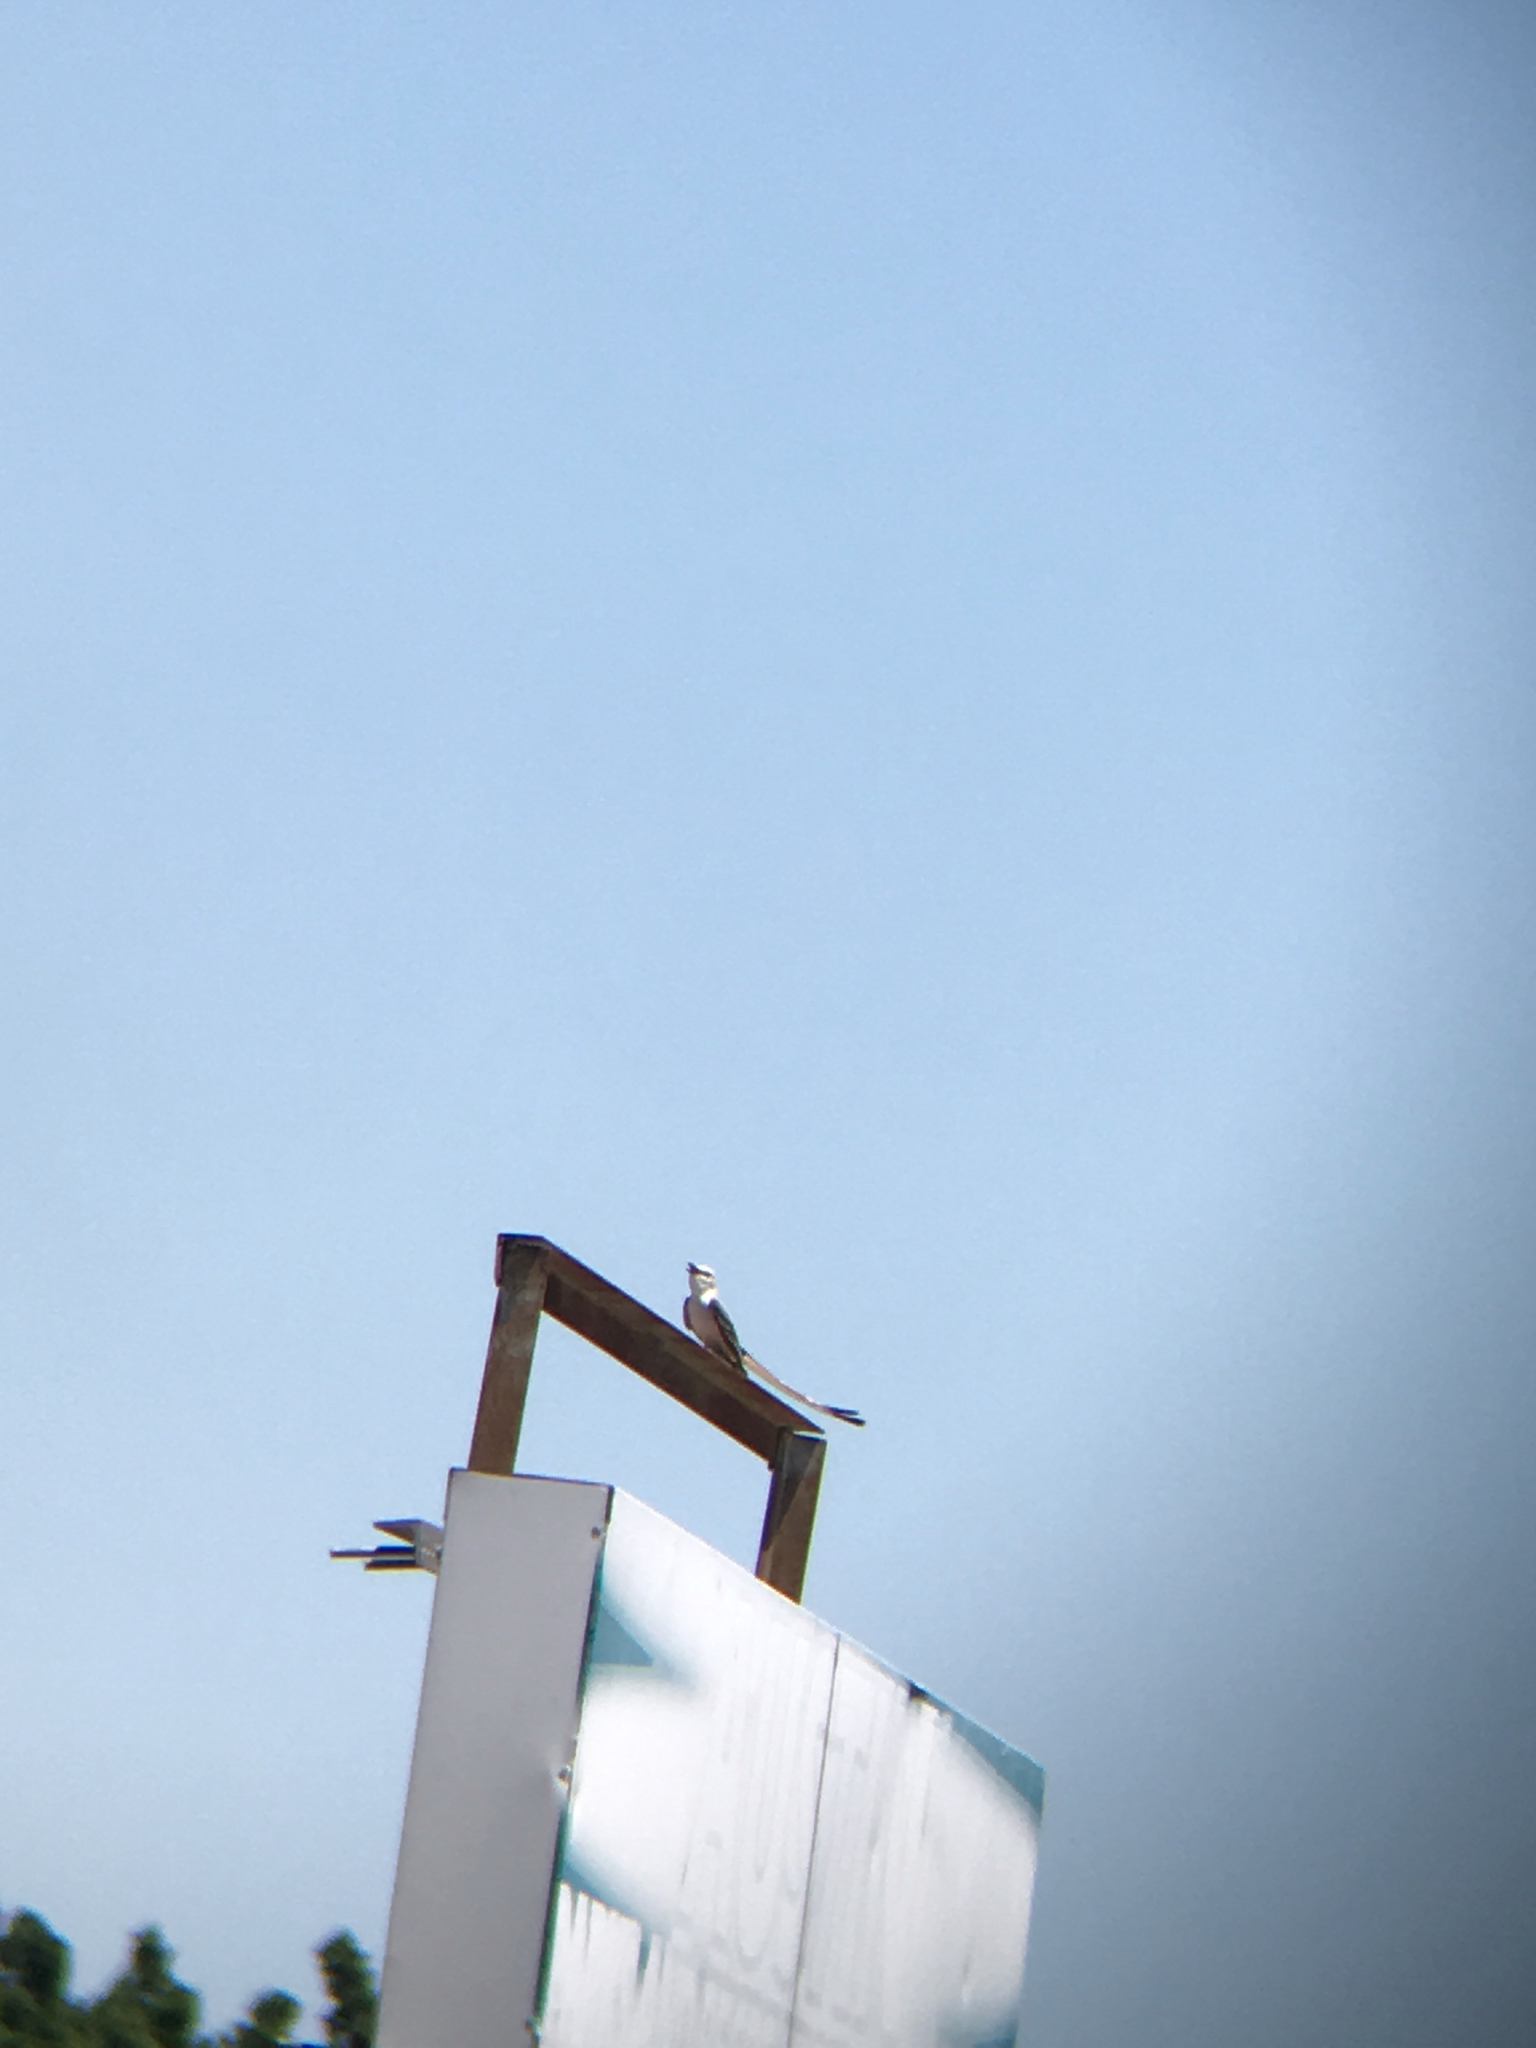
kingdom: Animalia
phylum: Chordata
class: Aves
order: Passeriformes
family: Tyrannidae
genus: Tyrannus
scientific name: Tyrannus forficatus
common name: Scissor-tailed flycatcher
